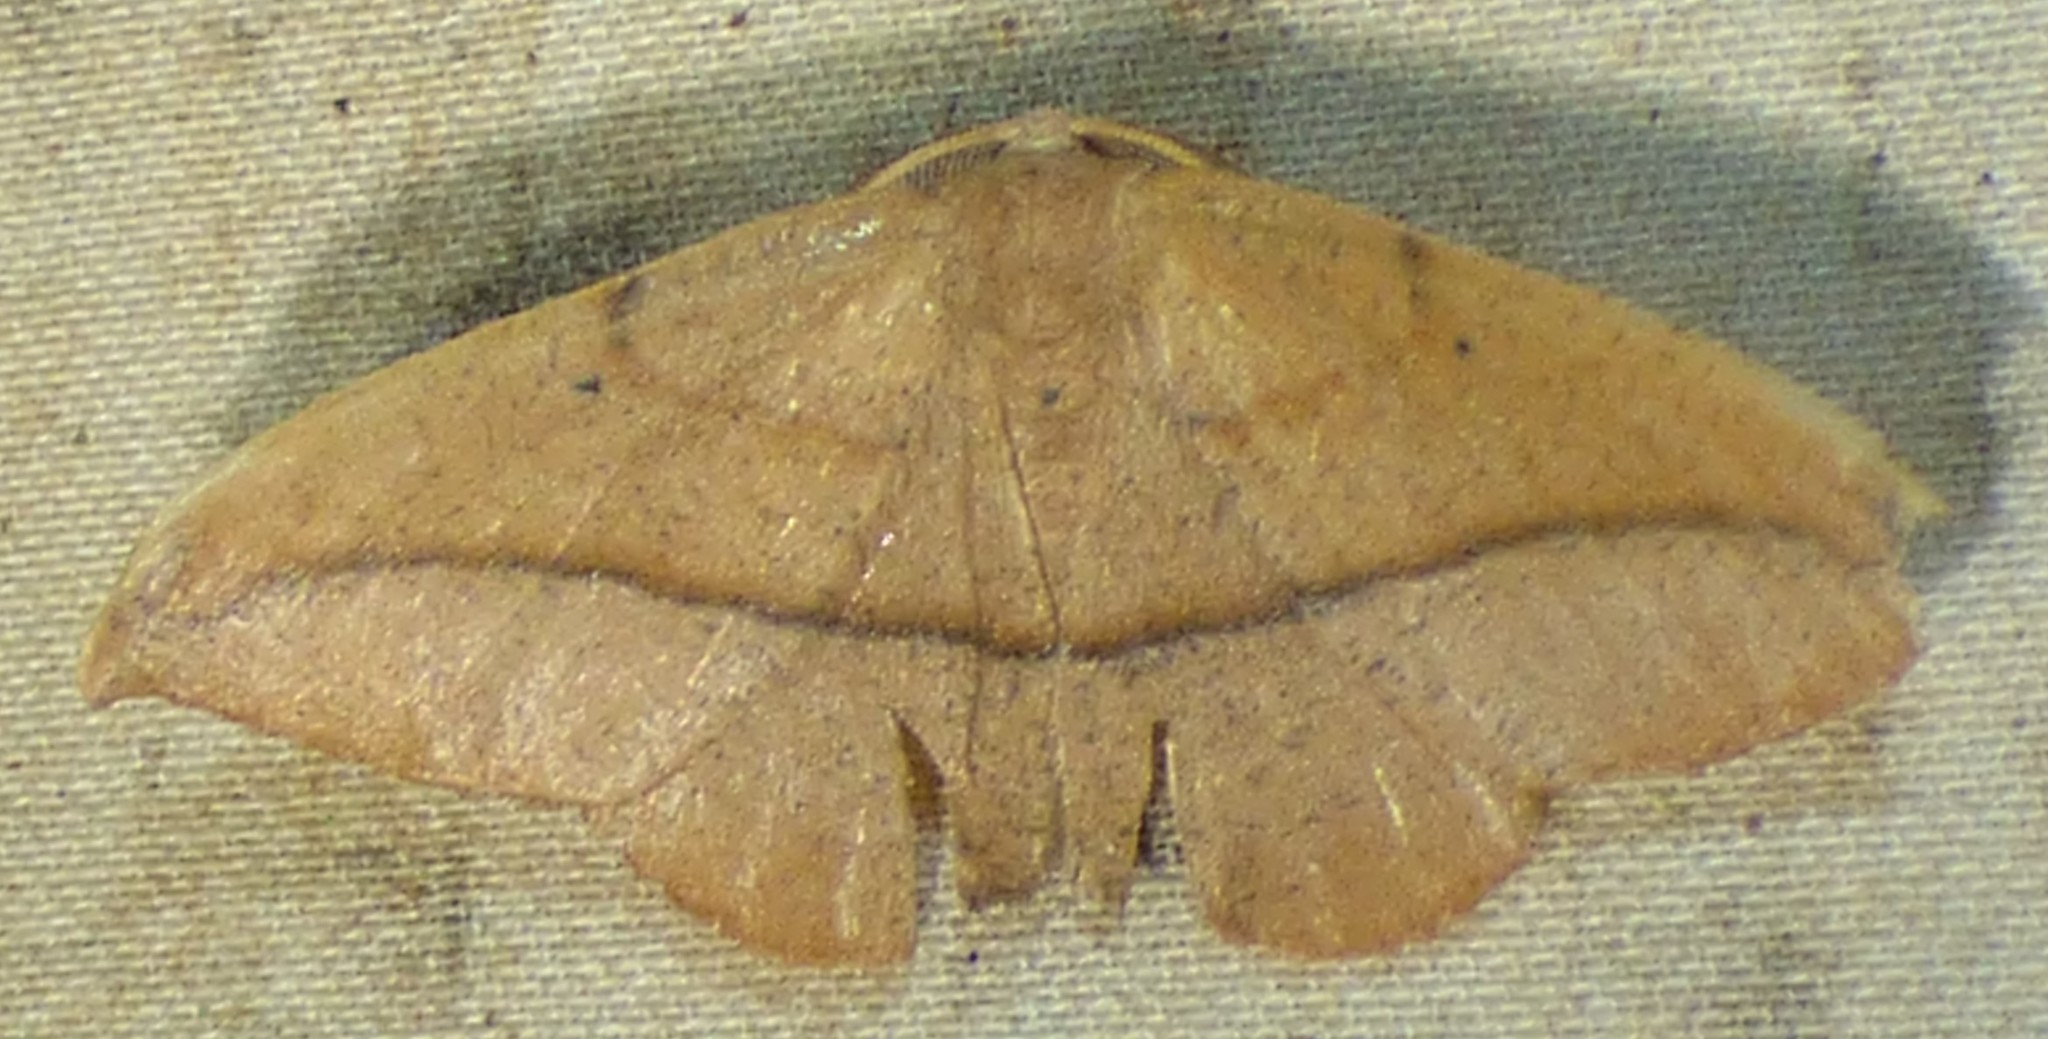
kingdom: Animalia
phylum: Arthropoda
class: Insecta
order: Lepidoptera
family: Geometridae
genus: Patalene
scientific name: Patalene olyzonaria
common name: Juniper geometer moth
